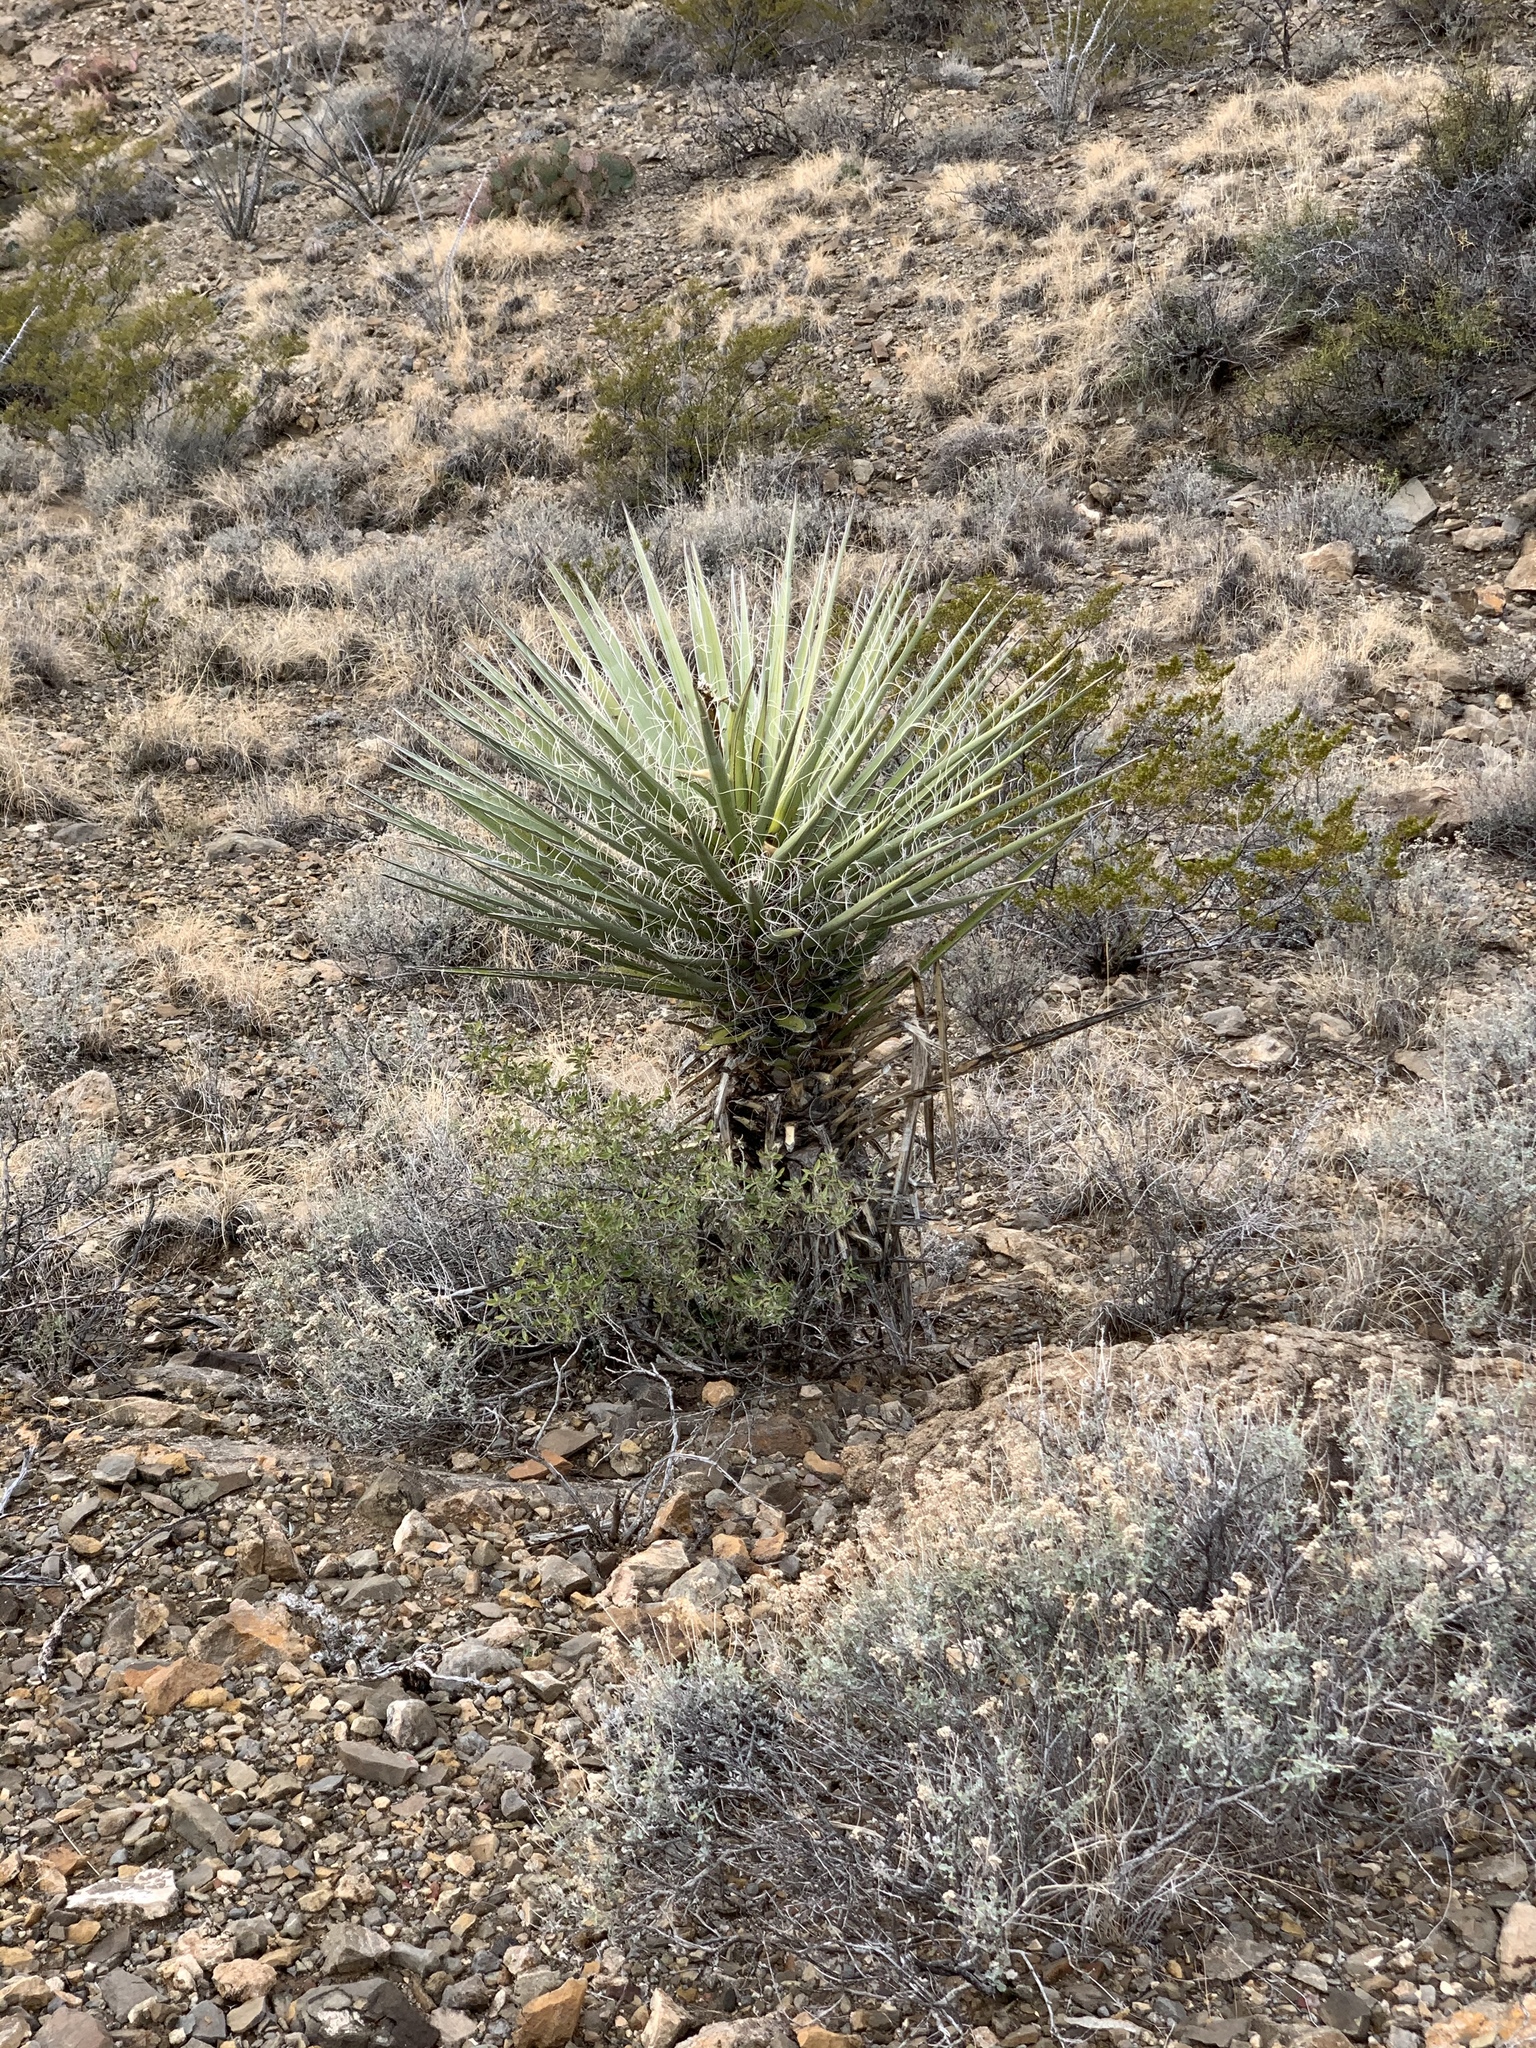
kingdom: Plantae
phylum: Tracheophyta
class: Liliopsida
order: Asparagales
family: Asparagaceae
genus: Yucca
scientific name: Yucca treculiana
